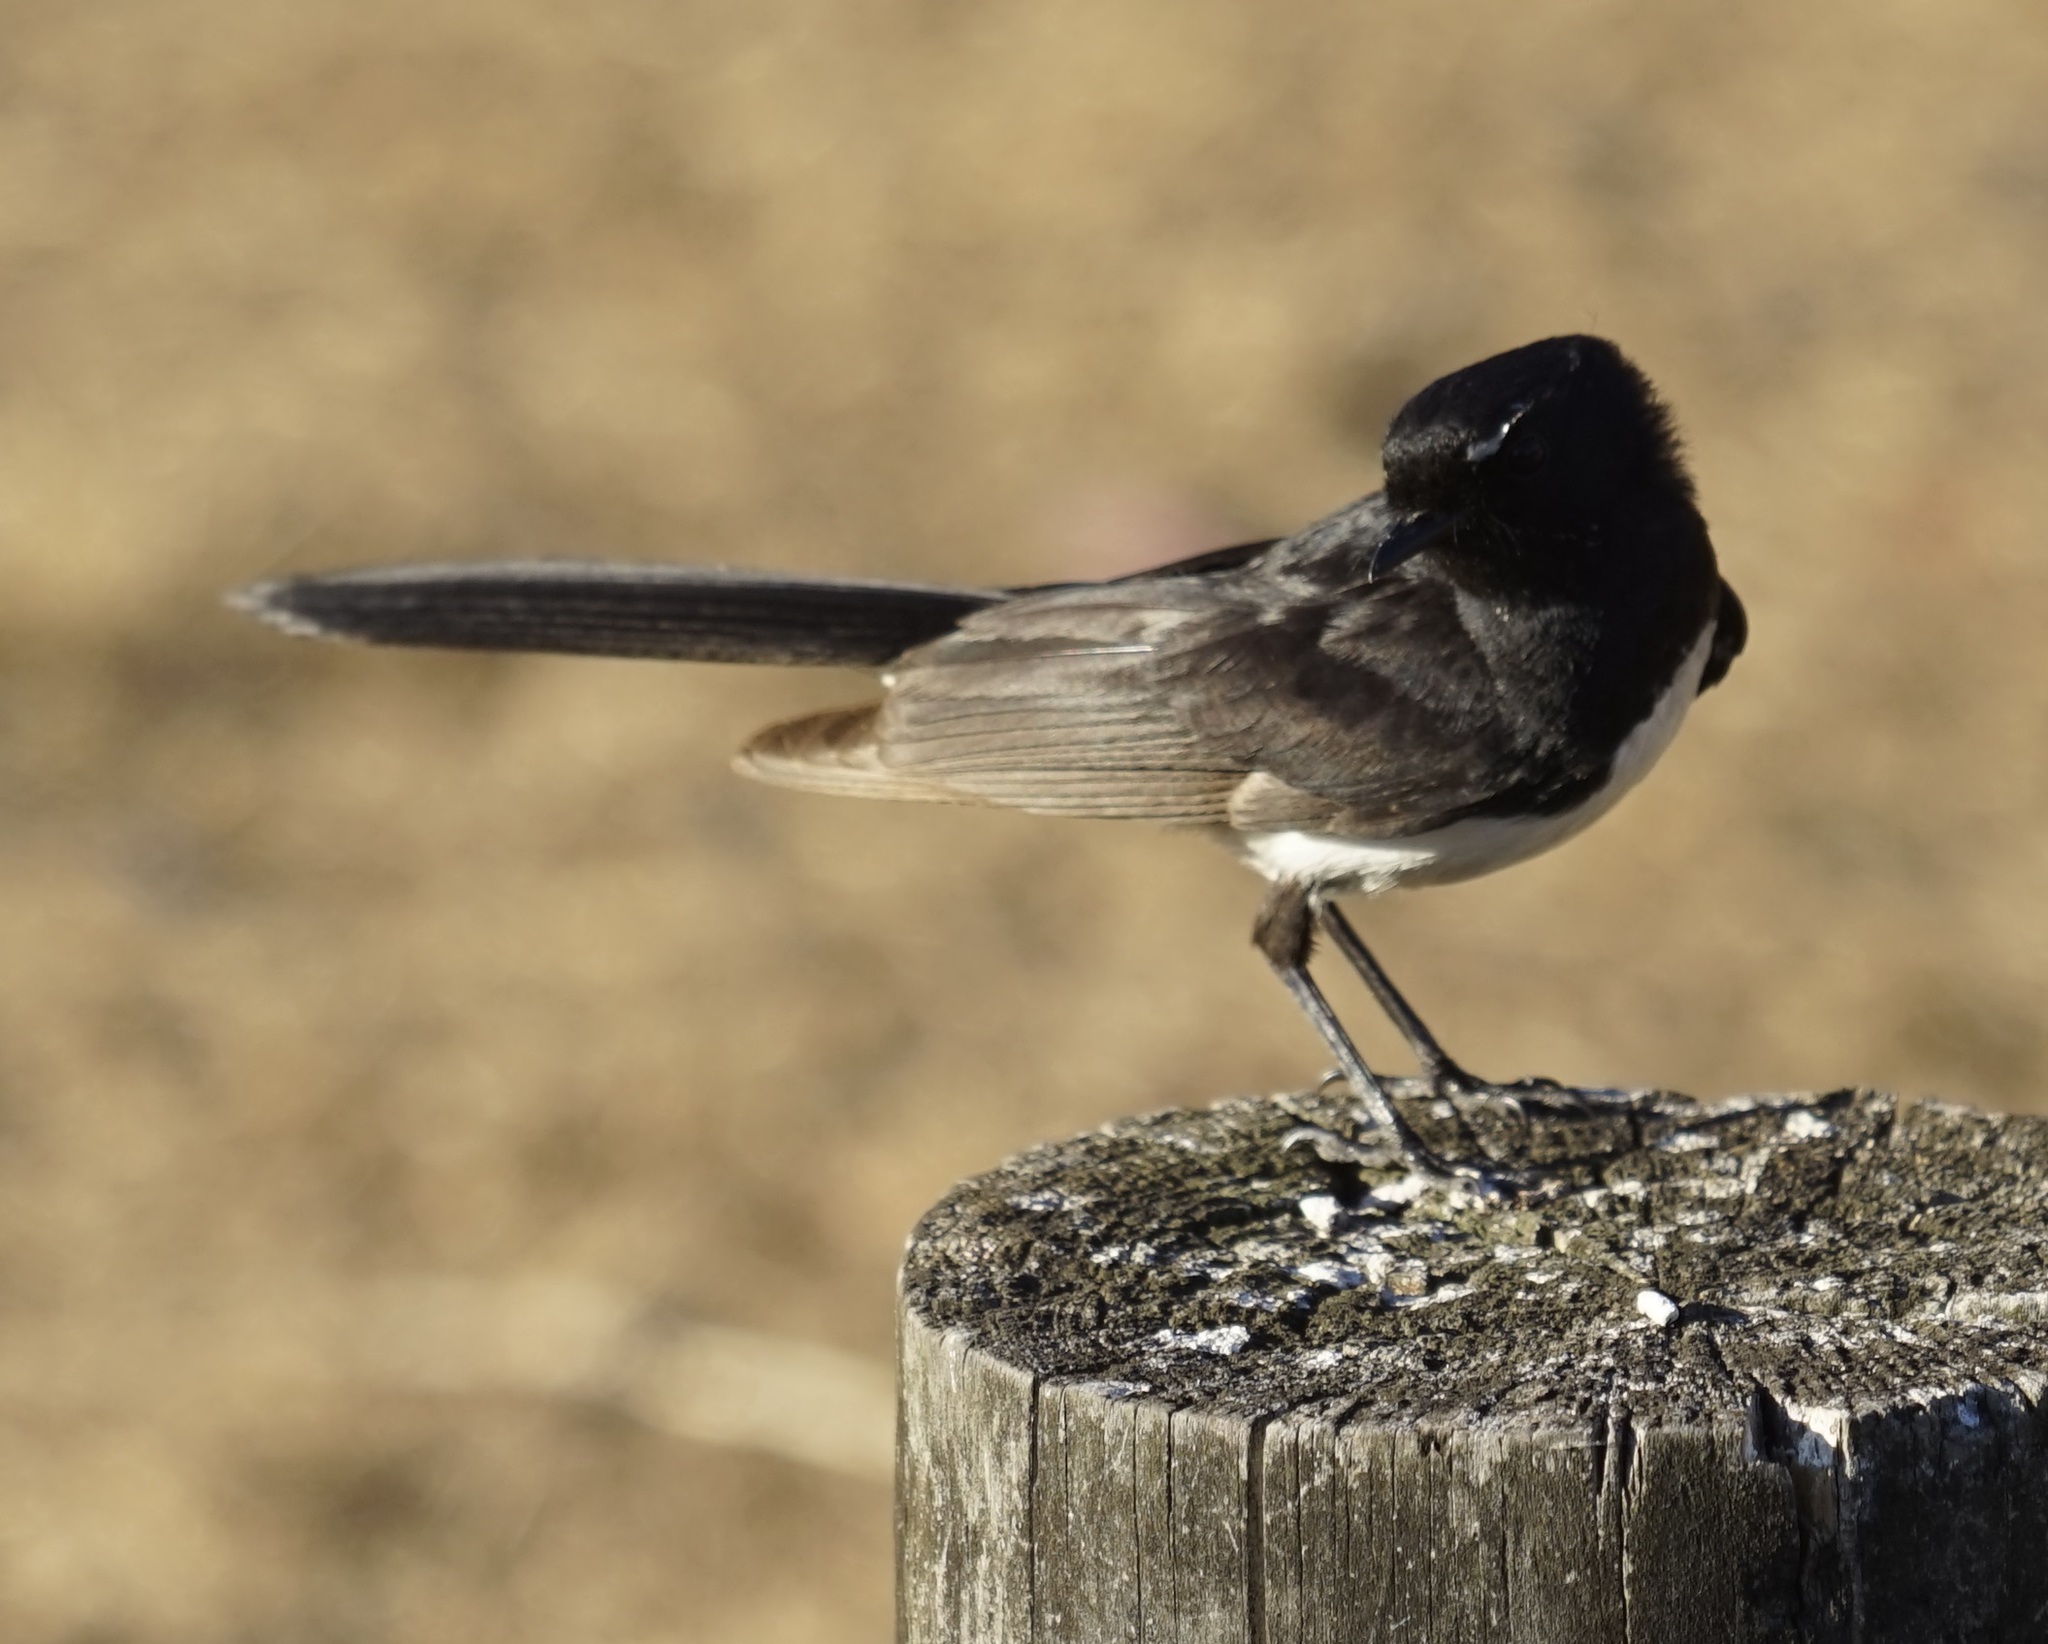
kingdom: Animalia
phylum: Chordata
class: Aves
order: Passeriformes
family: Rhipiduridae
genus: Rhipidura
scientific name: Rhipidura leucophrys
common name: Willie wagtail
